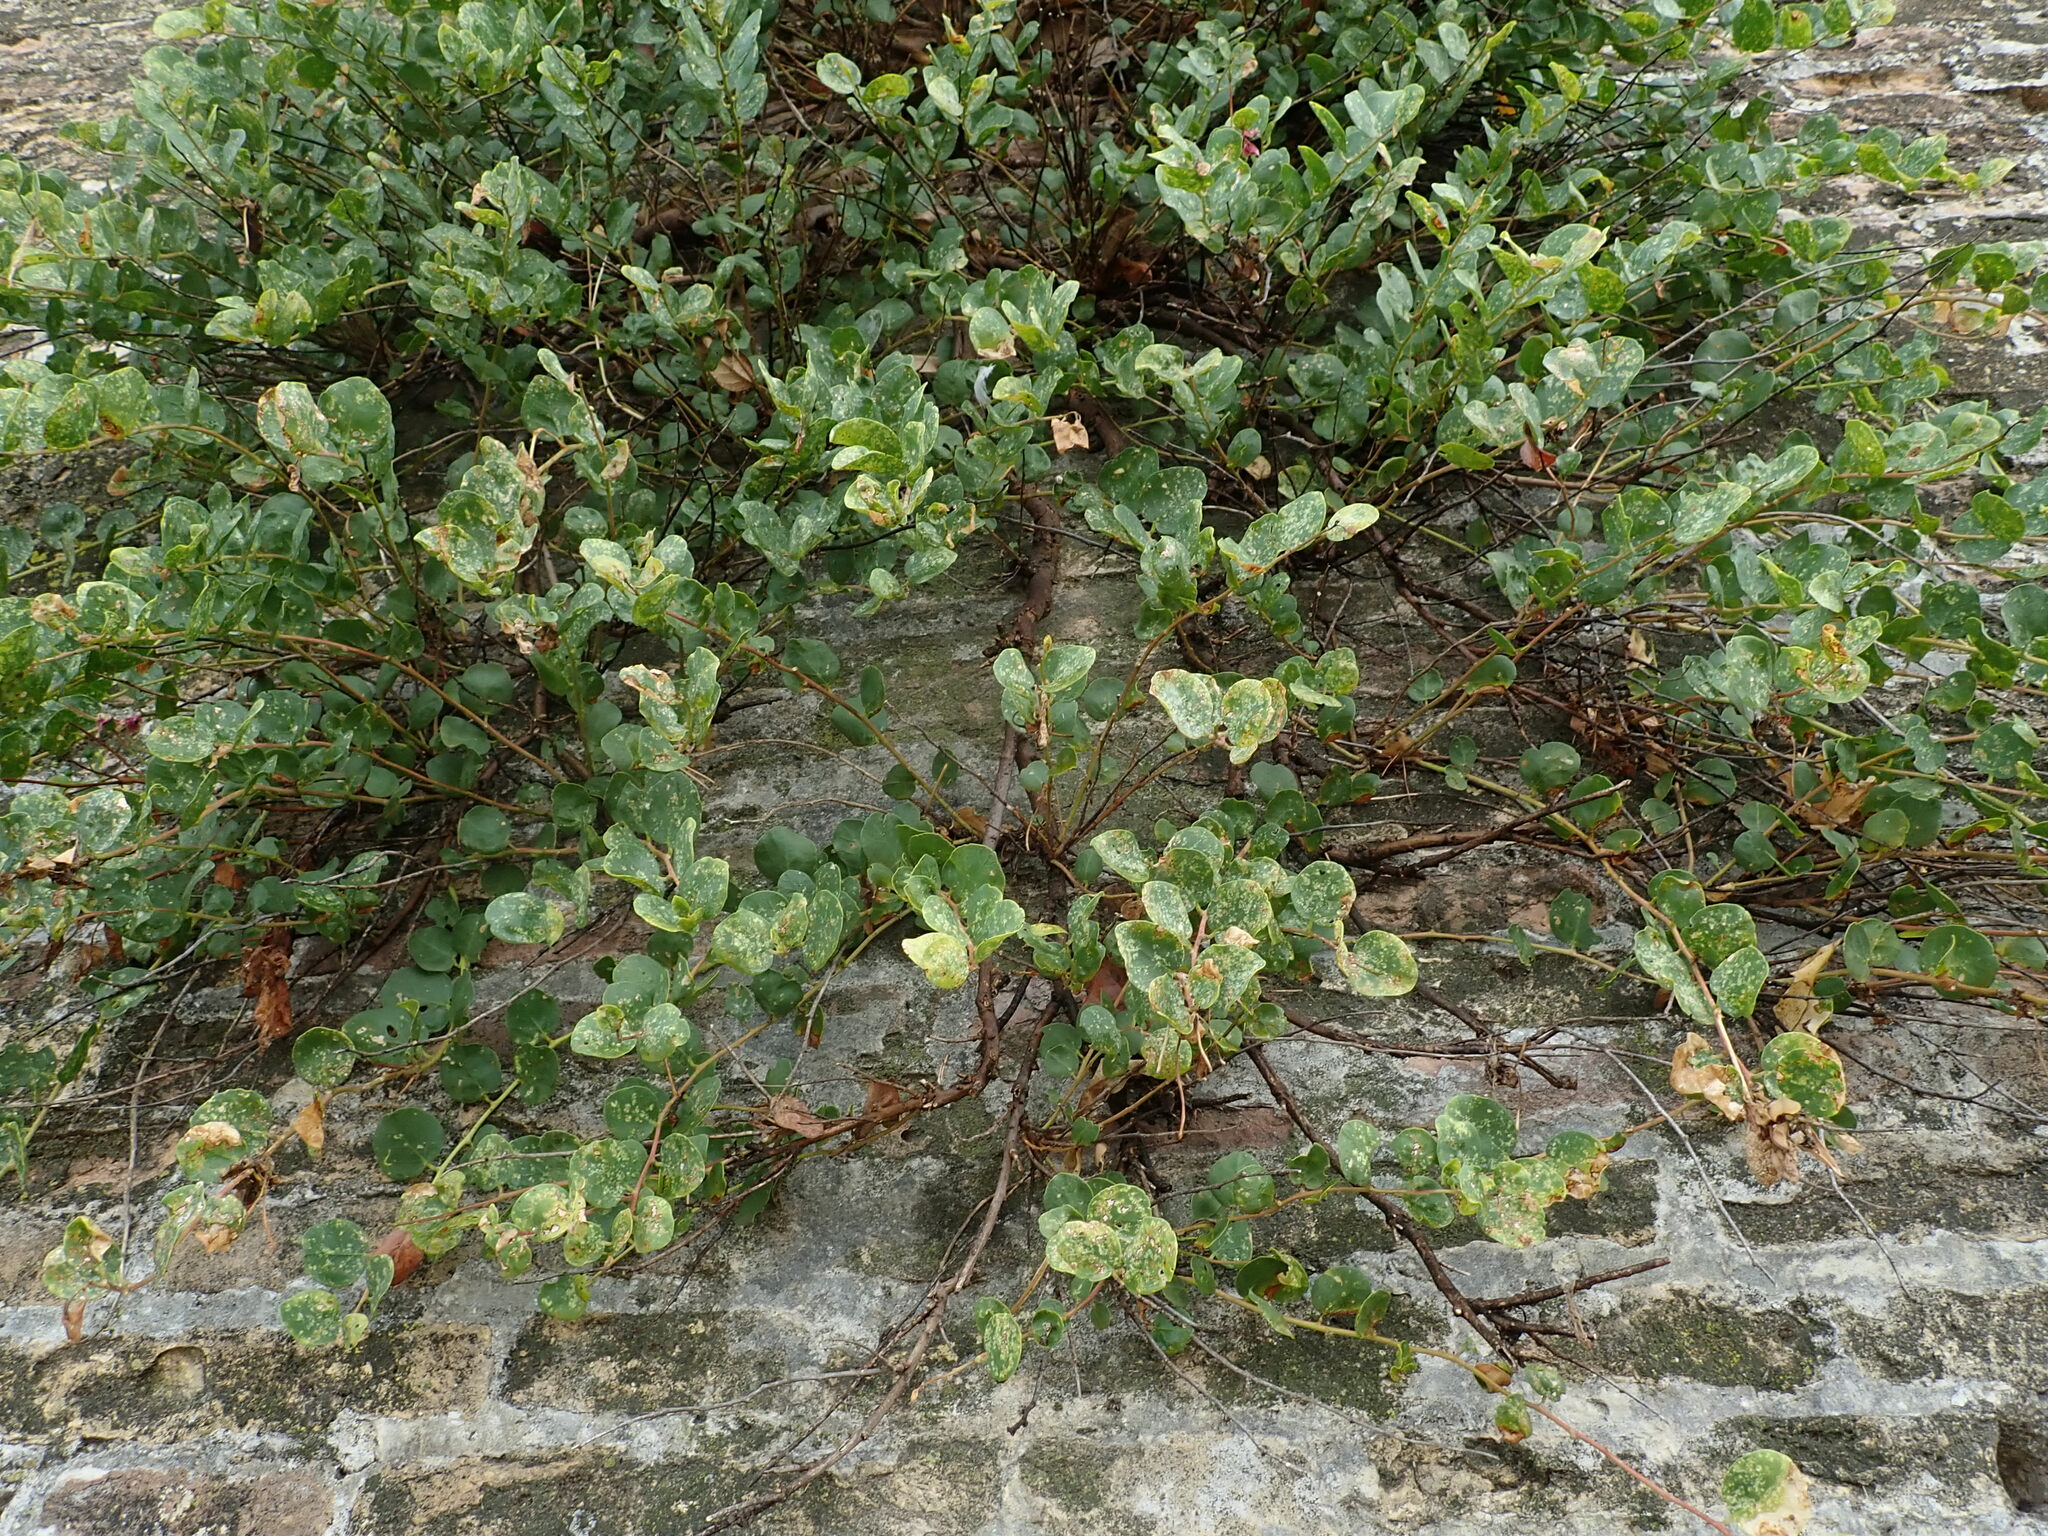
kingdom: Plantae
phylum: Tracheophyta
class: Magnoliopsida
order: Brassicales
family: Capparaceae
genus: Capparis
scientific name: Capparis orientalis
